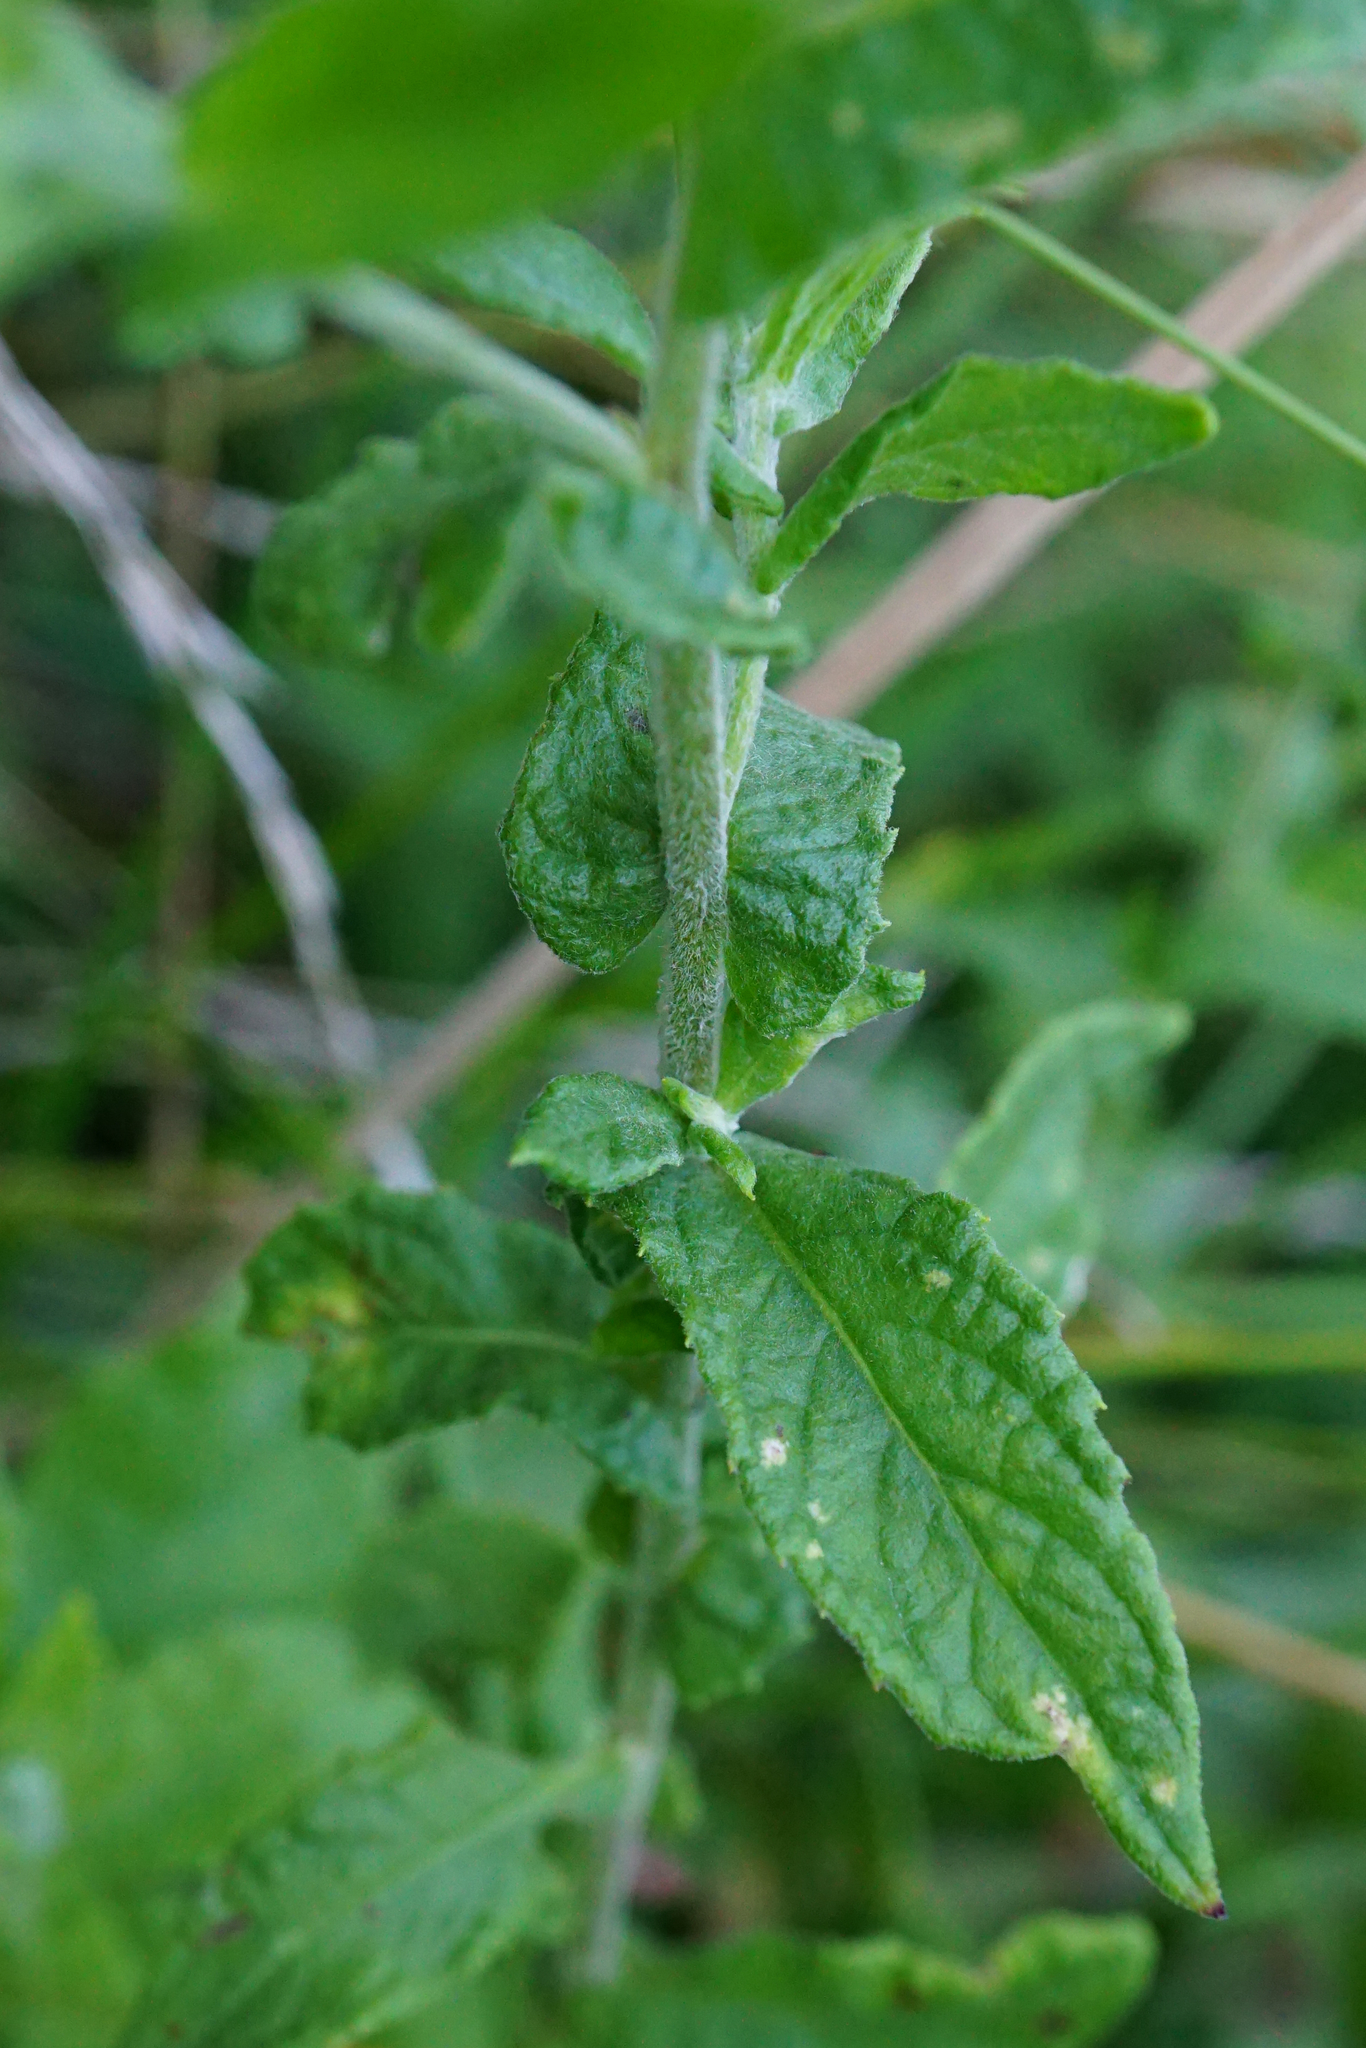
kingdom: Plantae
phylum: Tracheophyta
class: Magnoliopsida
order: Asterales
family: Asteraceae
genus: Pulicaria
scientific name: Pulicaria dysenterica
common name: Common fleabane
